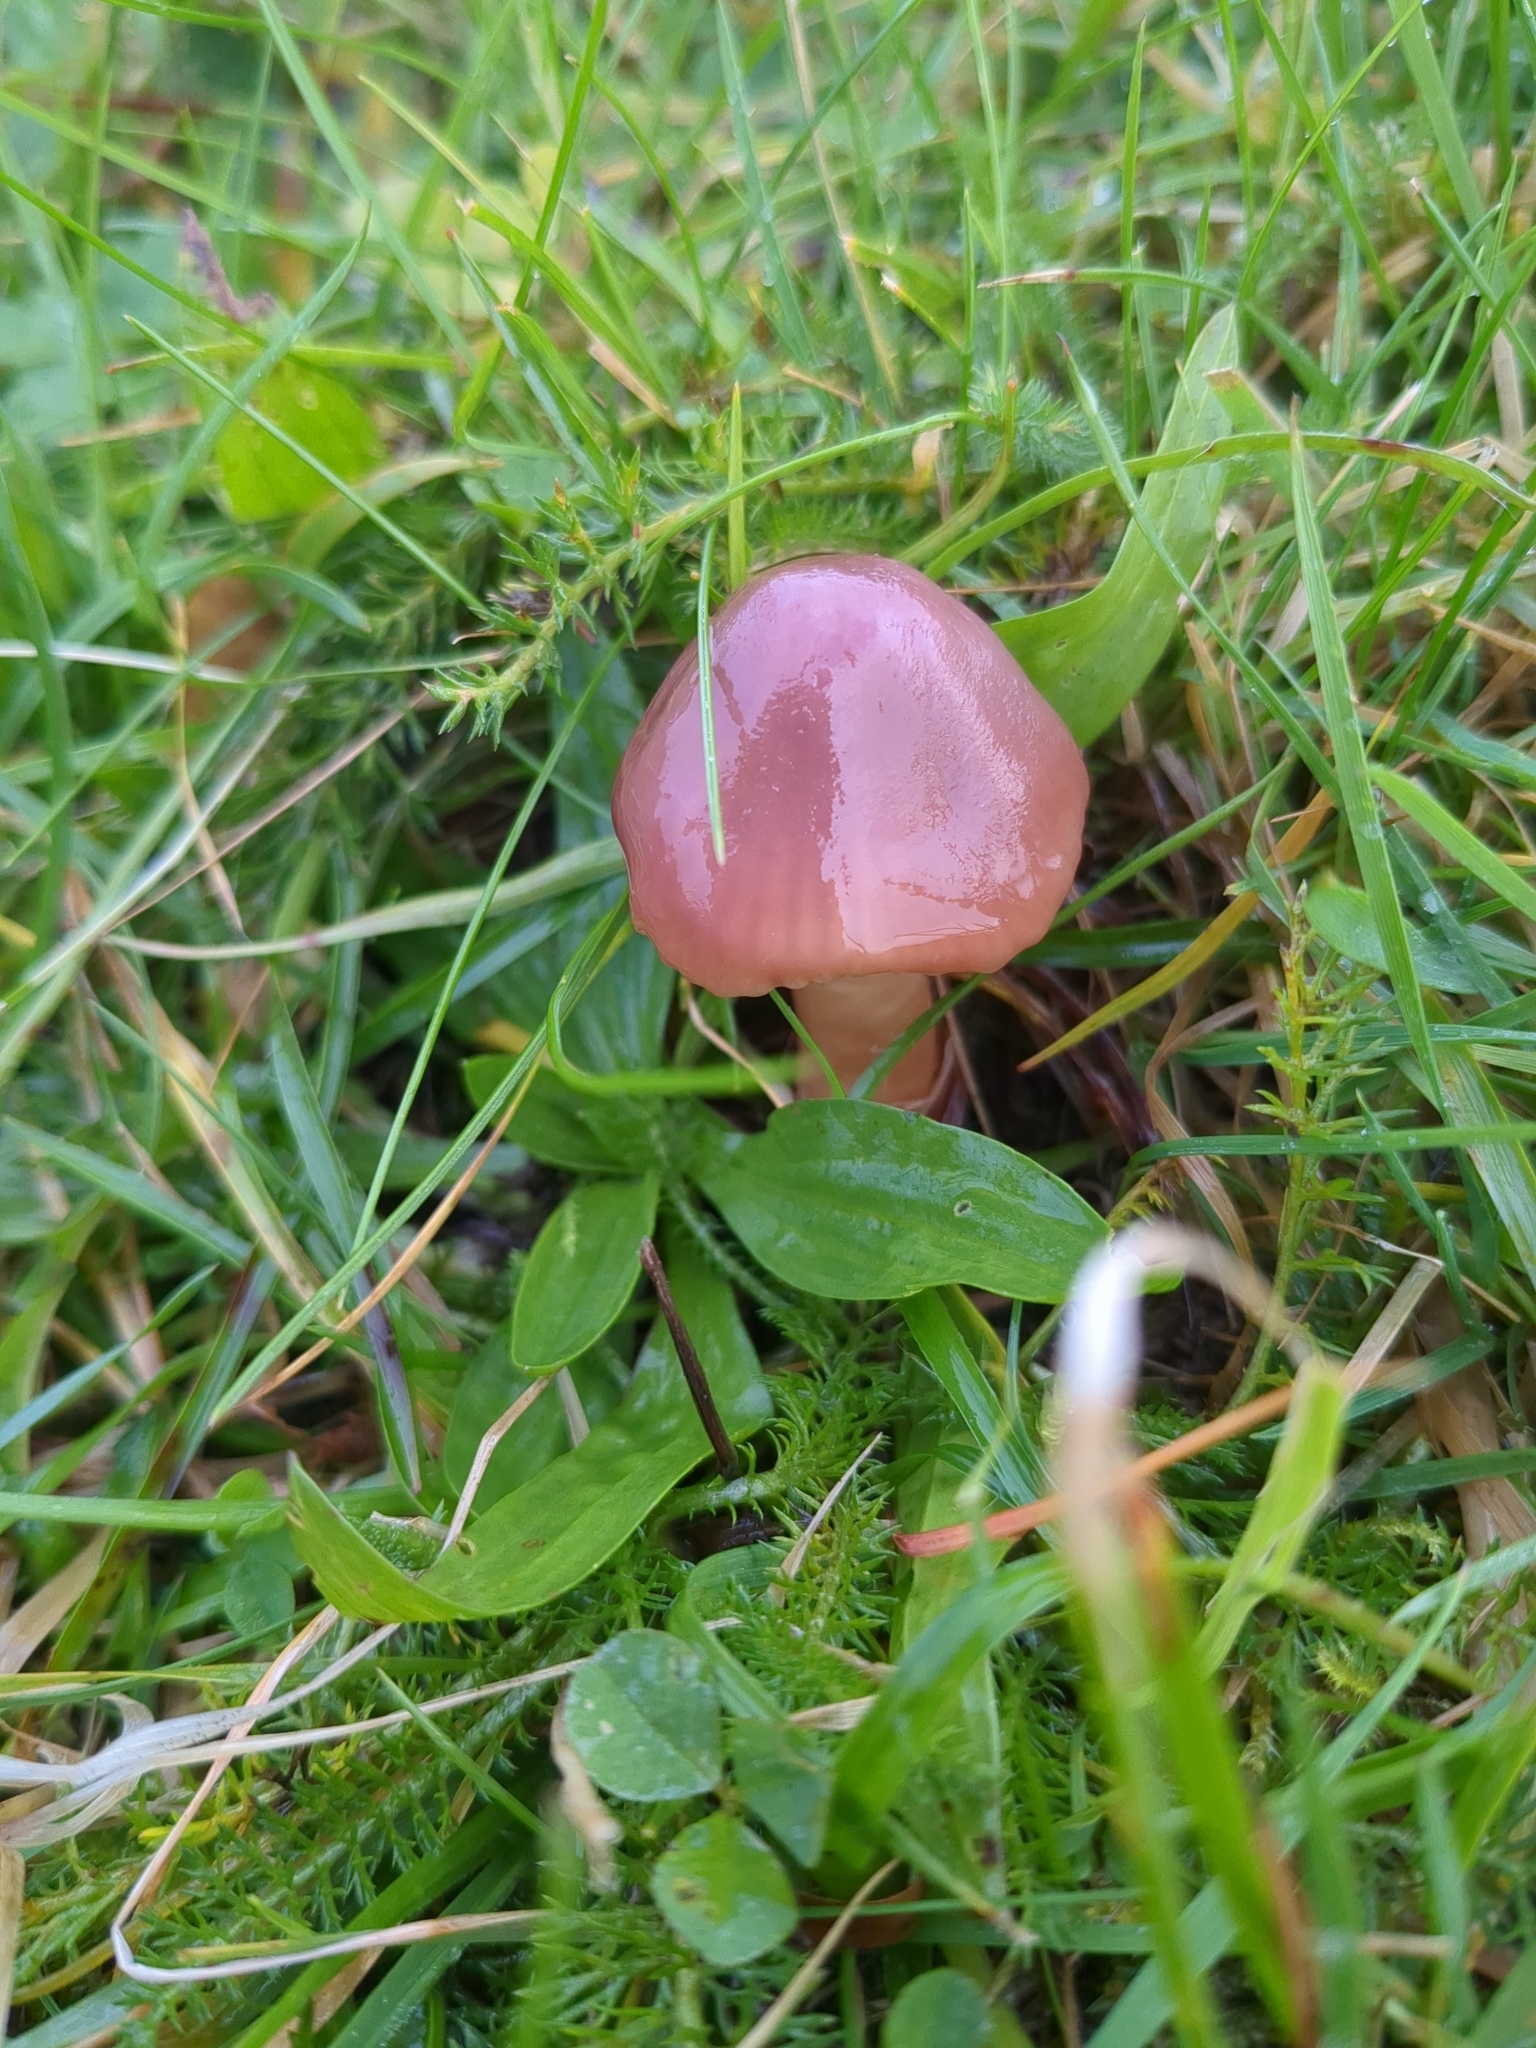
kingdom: Fungi
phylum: Basidiomycota
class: Agaricomycetes
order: Agaricales
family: Hygrophoraceae
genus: Gliophorus
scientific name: Gliophorus reginae
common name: Jubilee waxcap
